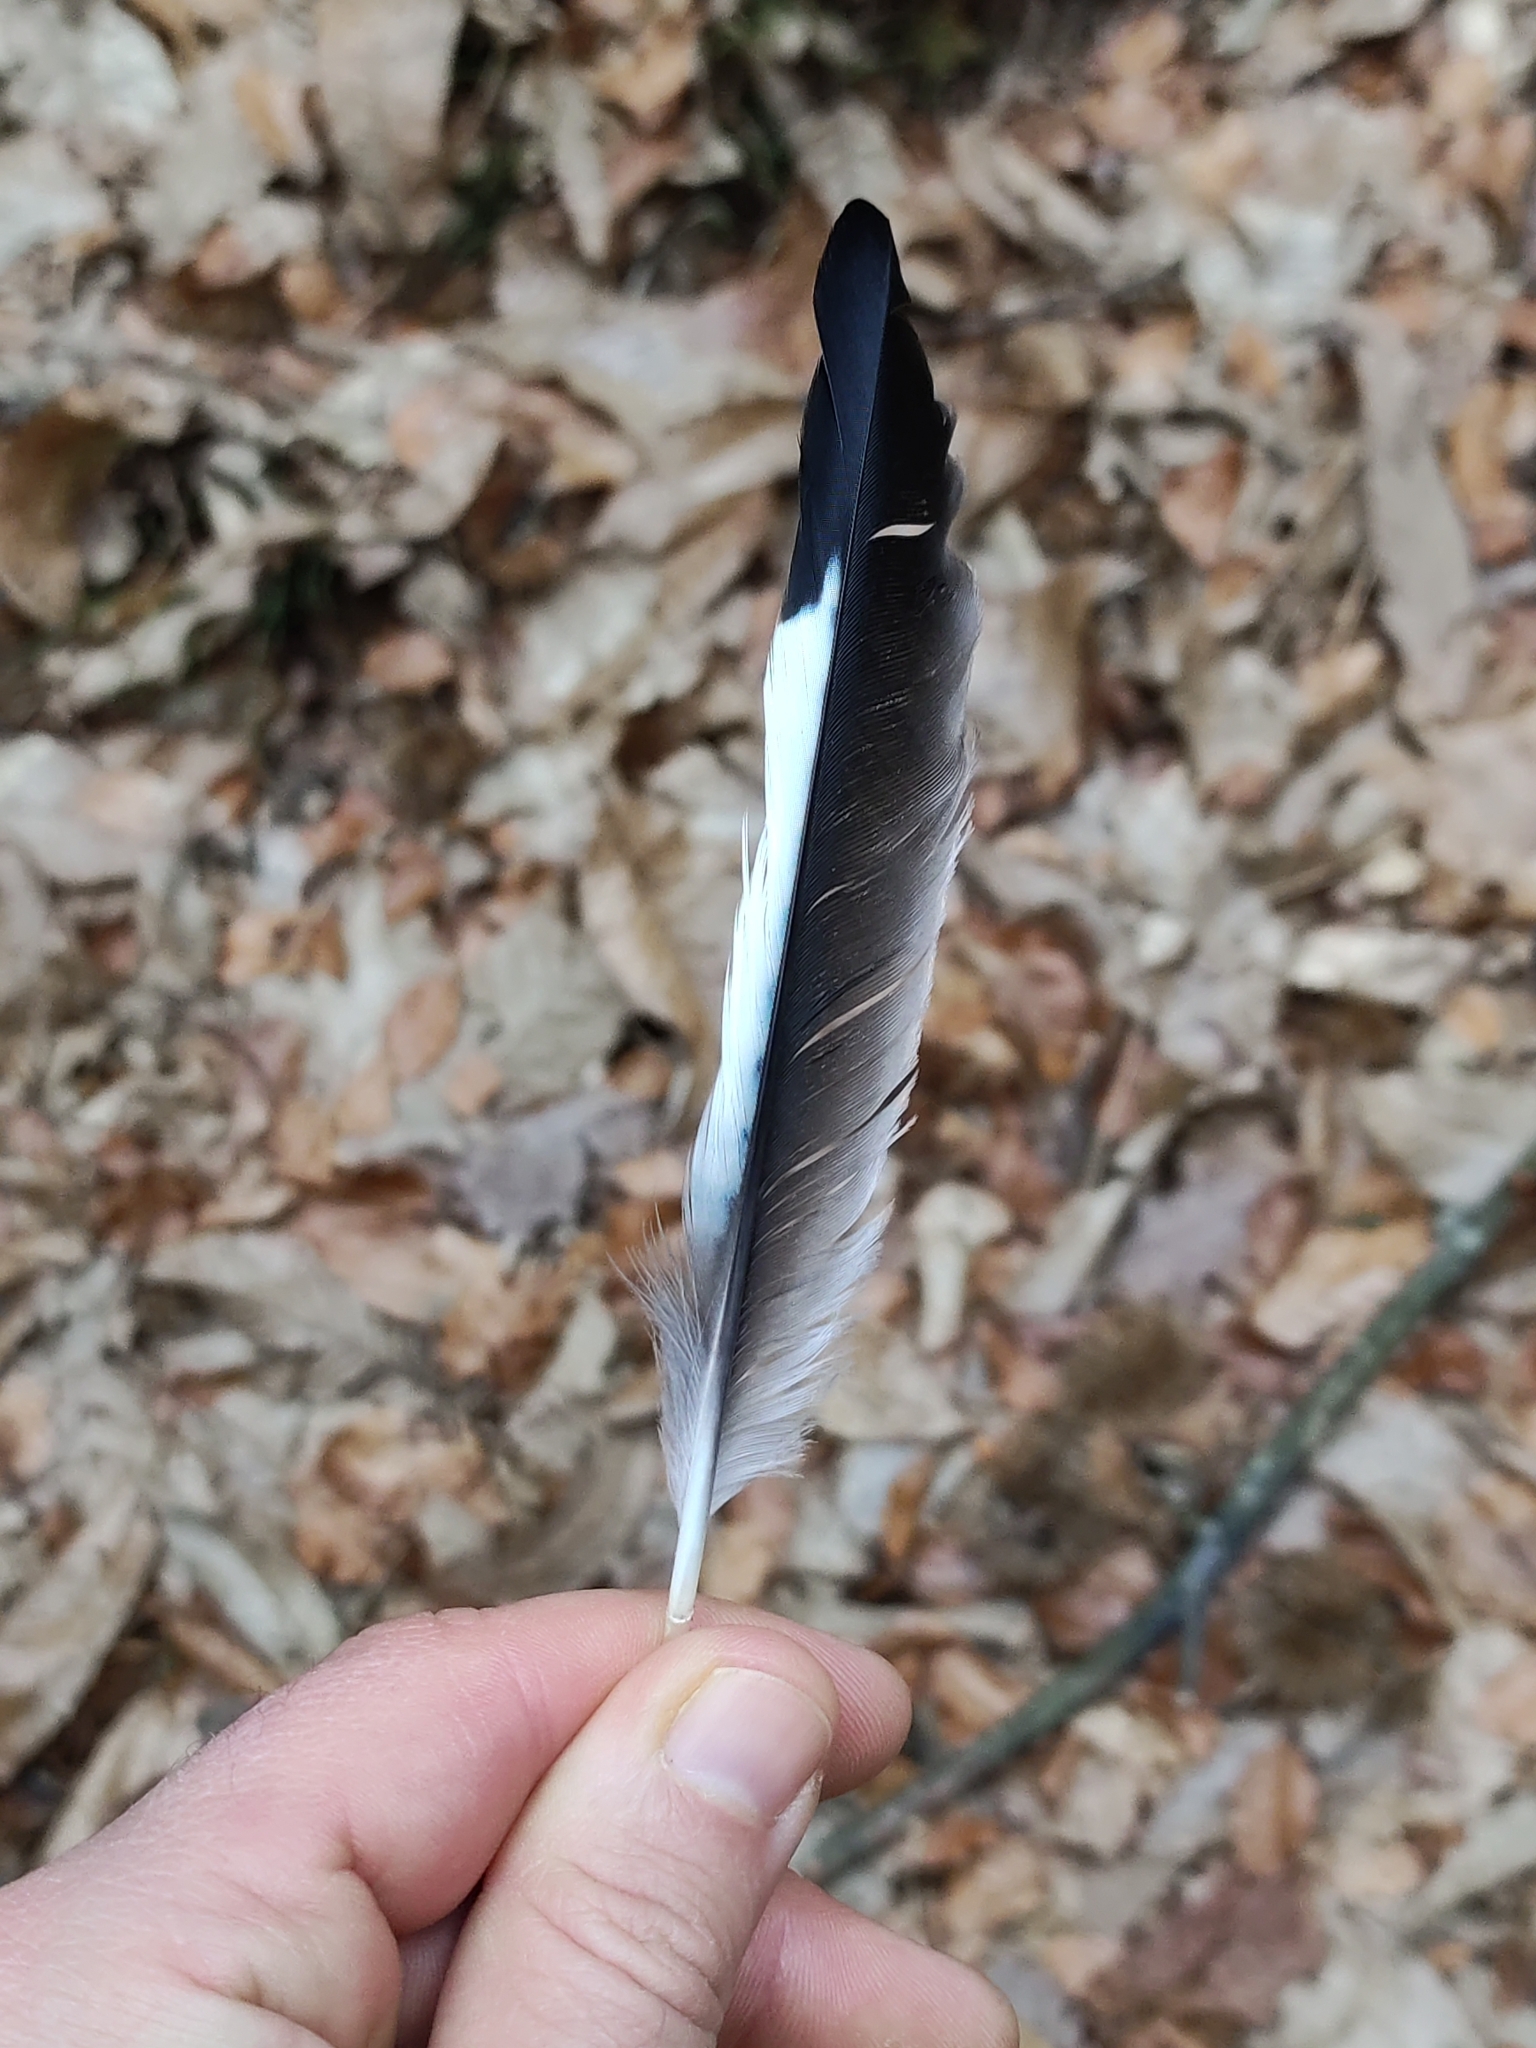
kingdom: Animalia
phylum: Chordata
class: Aves
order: Passeriformes
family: Corvidae
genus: Garrulus
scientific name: Garrulus glandarius
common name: Eurasian jay
